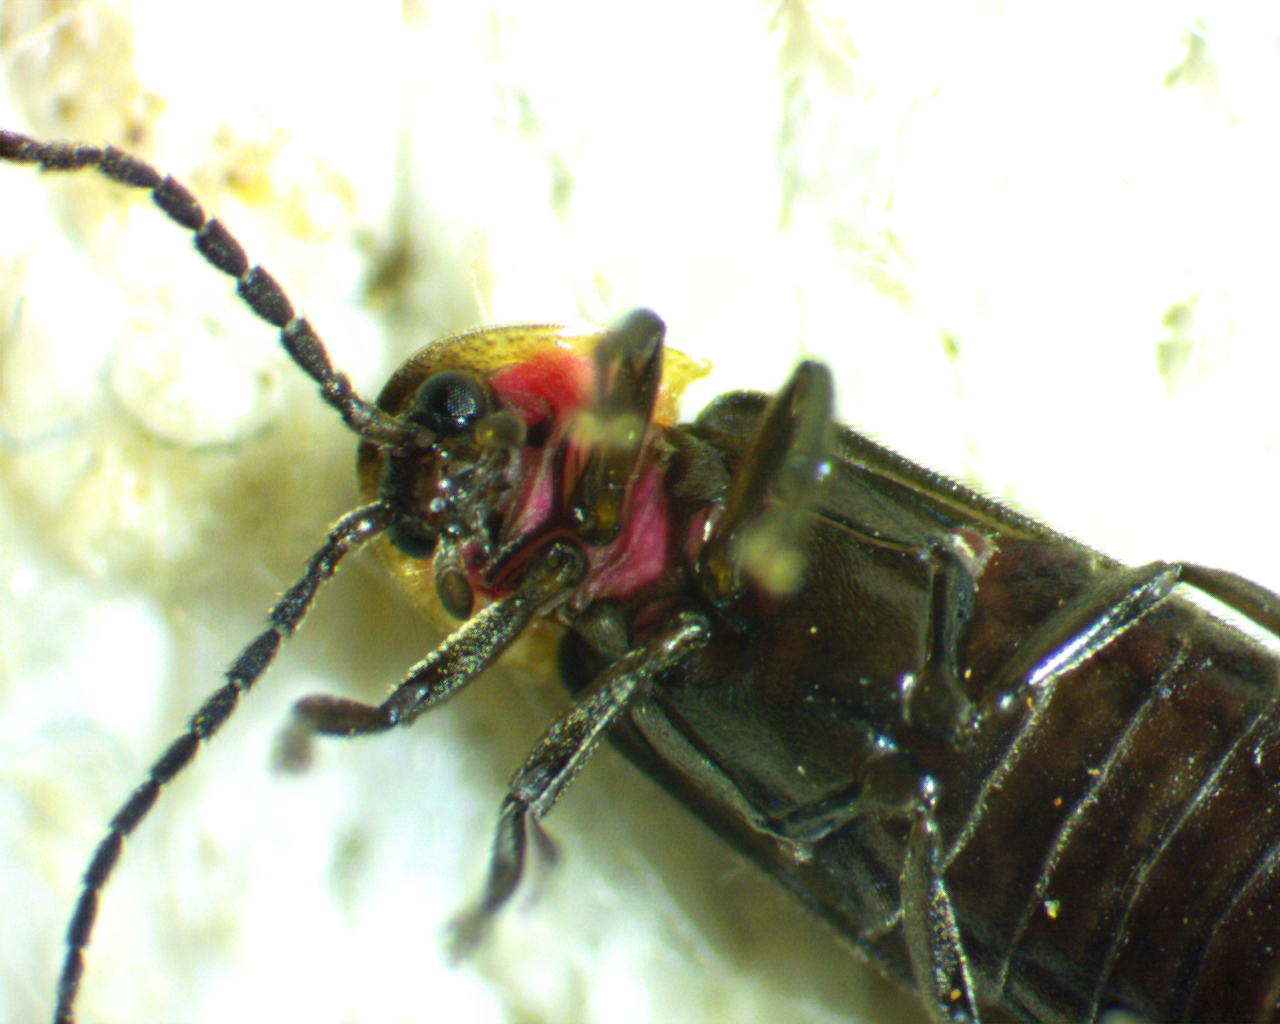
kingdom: Animalia
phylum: Arthropoda
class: Insecta
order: Coleoptera
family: Lampyridae
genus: Pyropyga
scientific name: Pyropyga minuta
